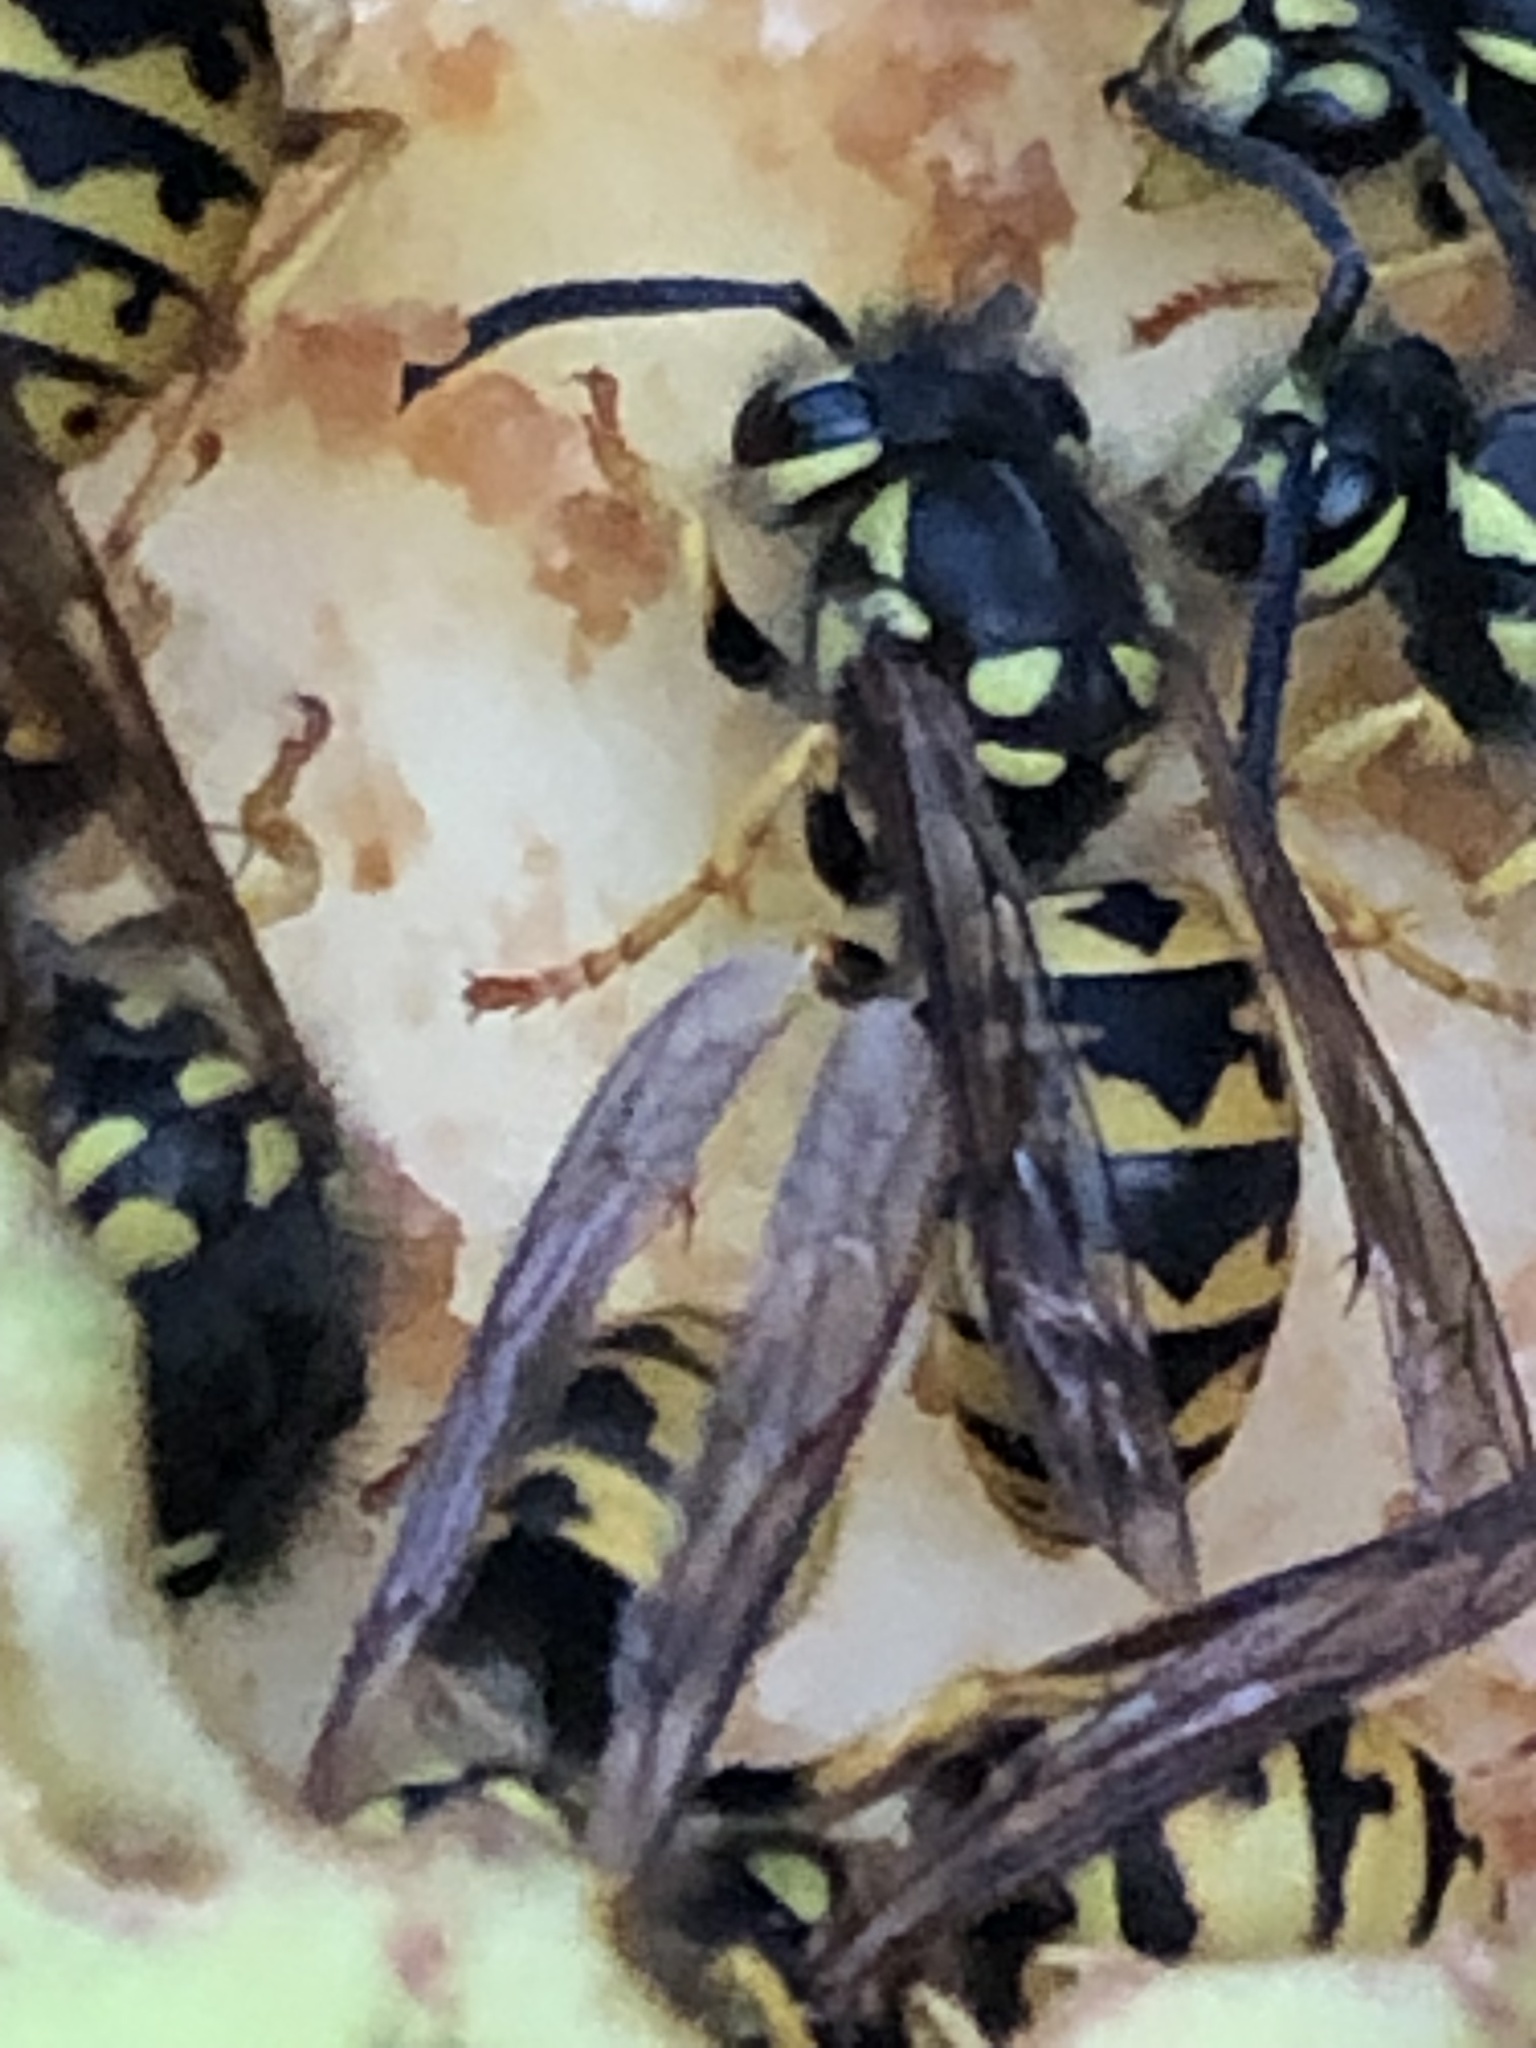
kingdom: Animalia
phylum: Arthropoda
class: Insecta
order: Hymenoptera
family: Vespidae
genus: Vespula
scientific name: Vespula germanica
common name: German wasp
